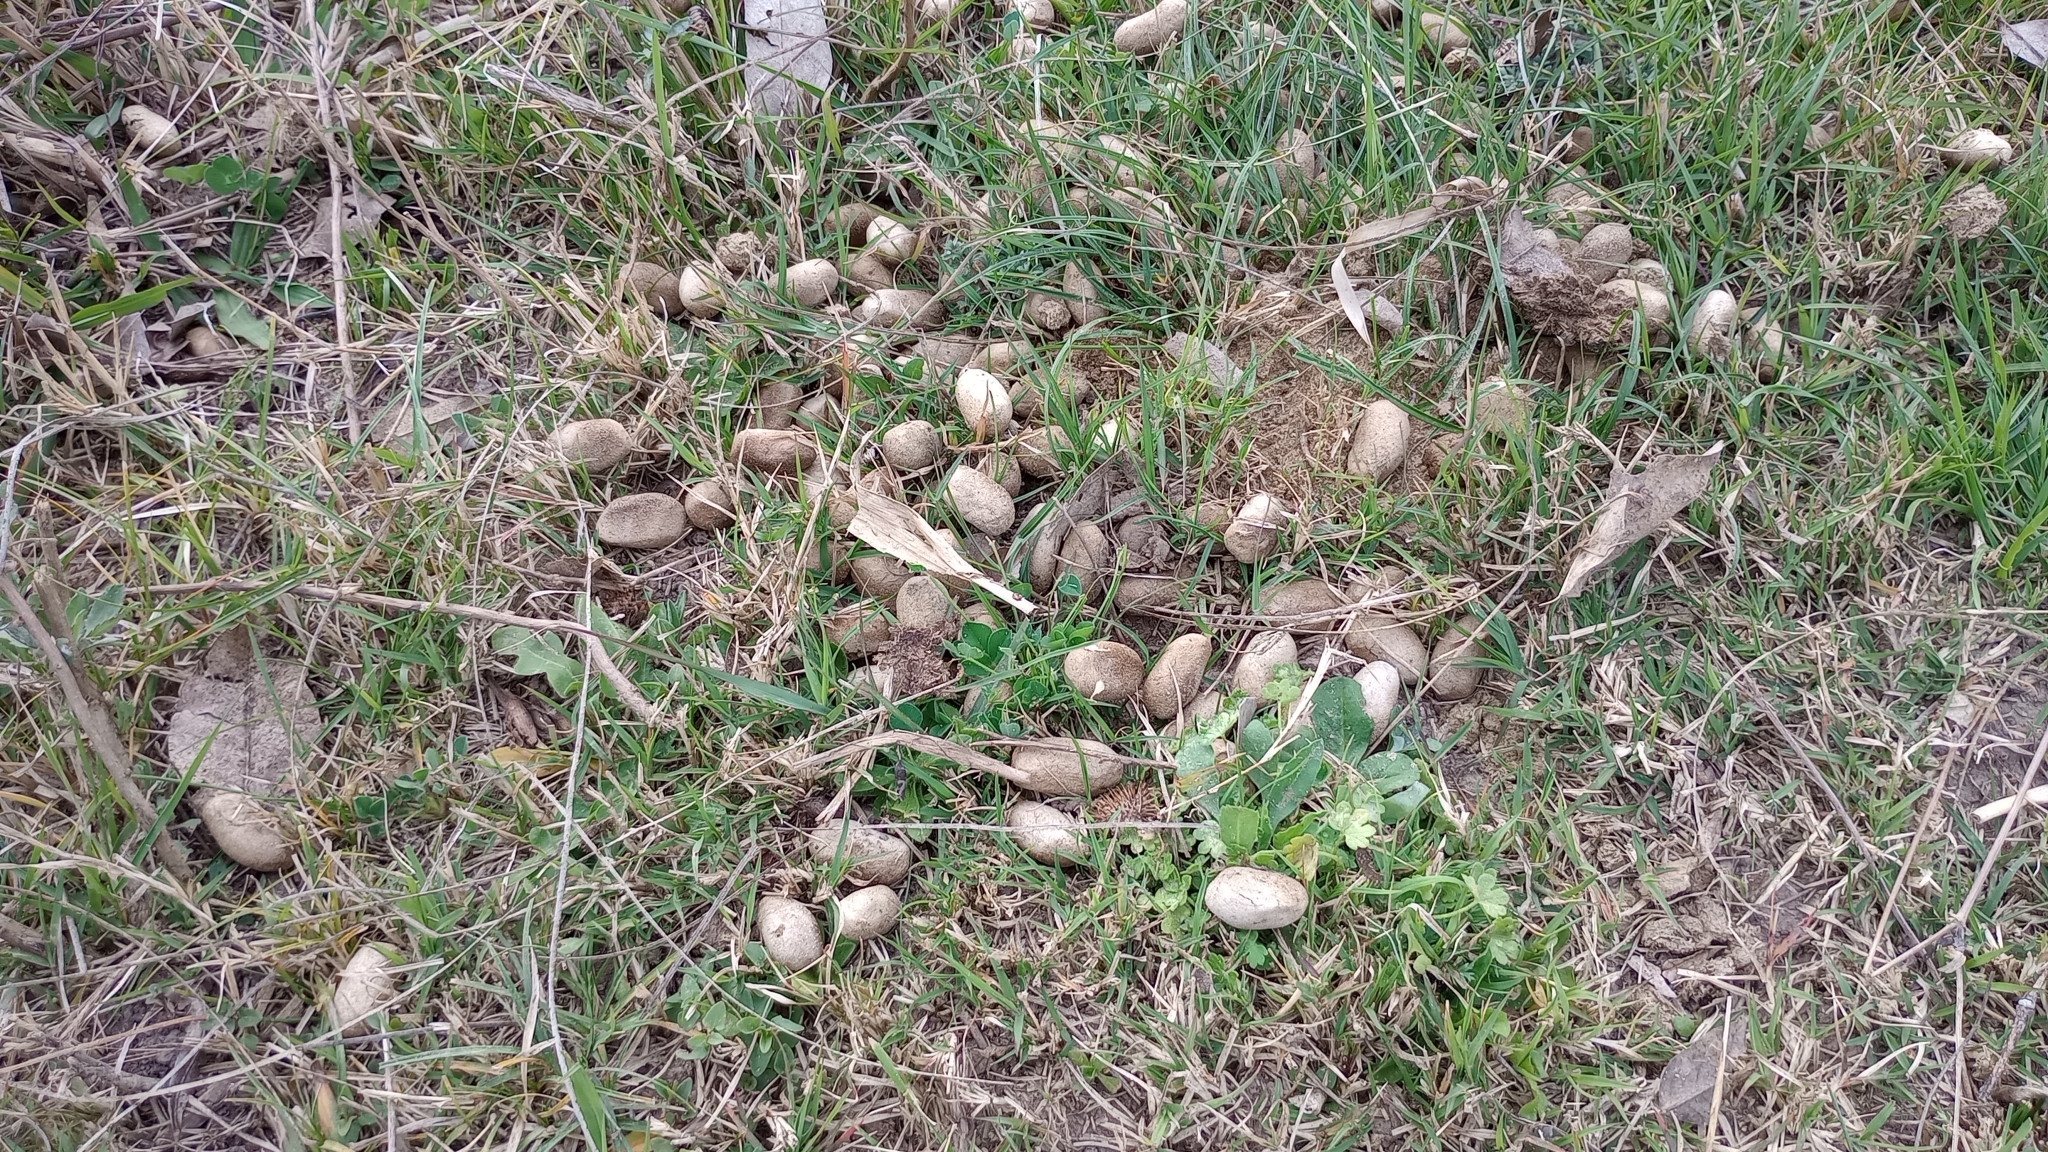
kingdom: Animalia
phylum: Chordata
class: Mammalia
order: Rodentia
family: Caviidae
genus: Hydrochoerus
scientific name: Hydrochoerus hydrochaeris
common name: Capybara
